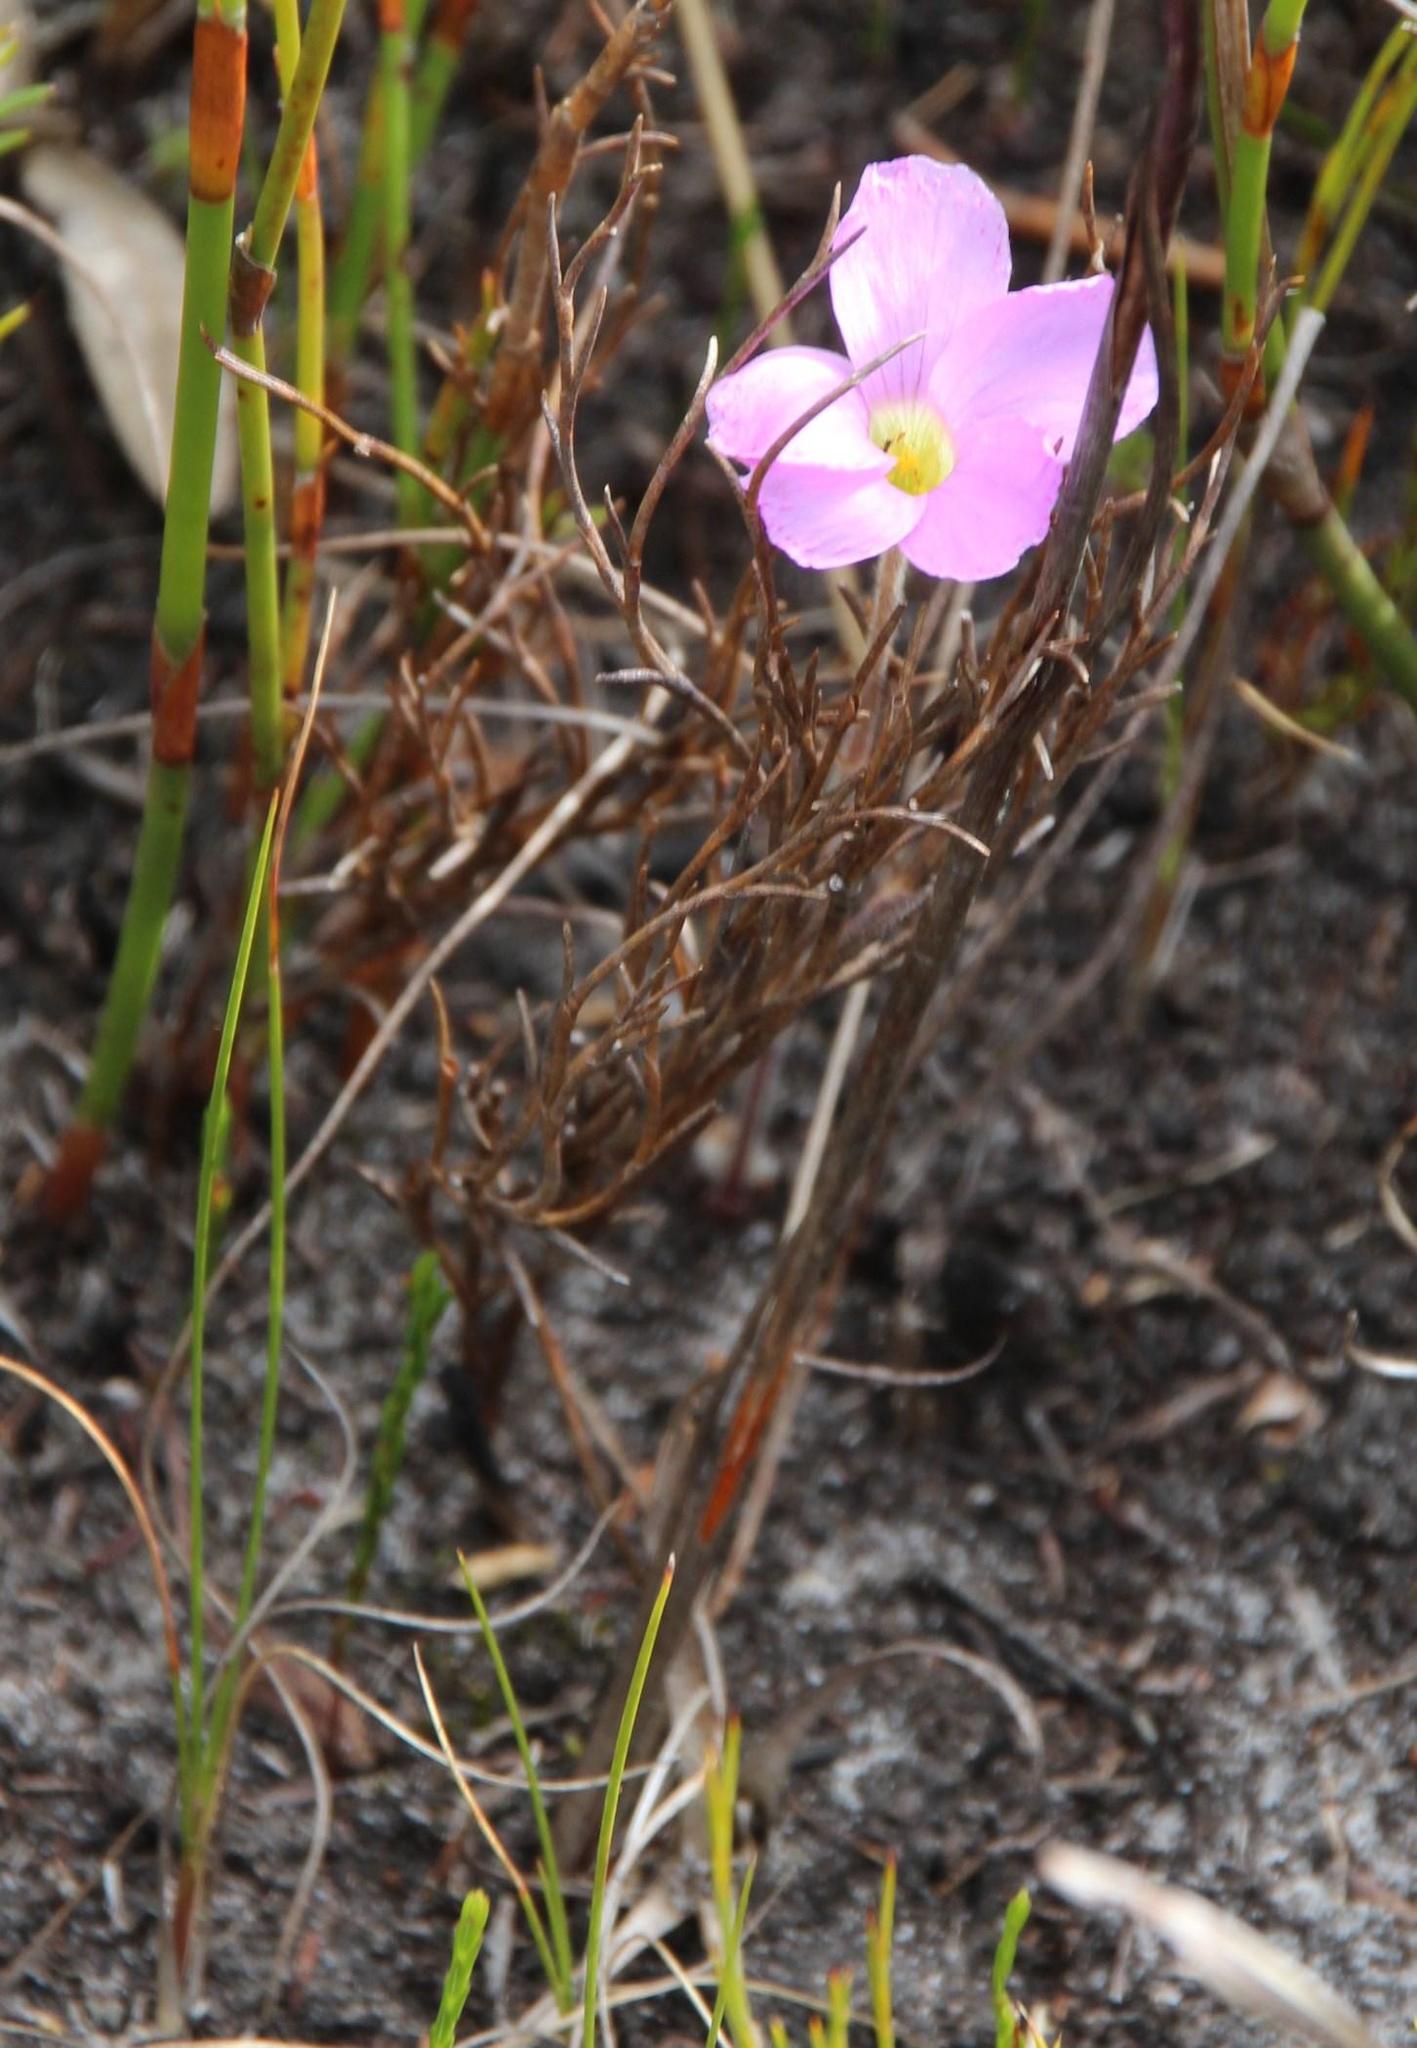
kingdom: Plantae
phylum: Tracheophyta
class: Magnoliopsida
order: Oxalidales
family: Oxalidaceae
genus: Oxalis
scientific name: Oxalis truncatula
